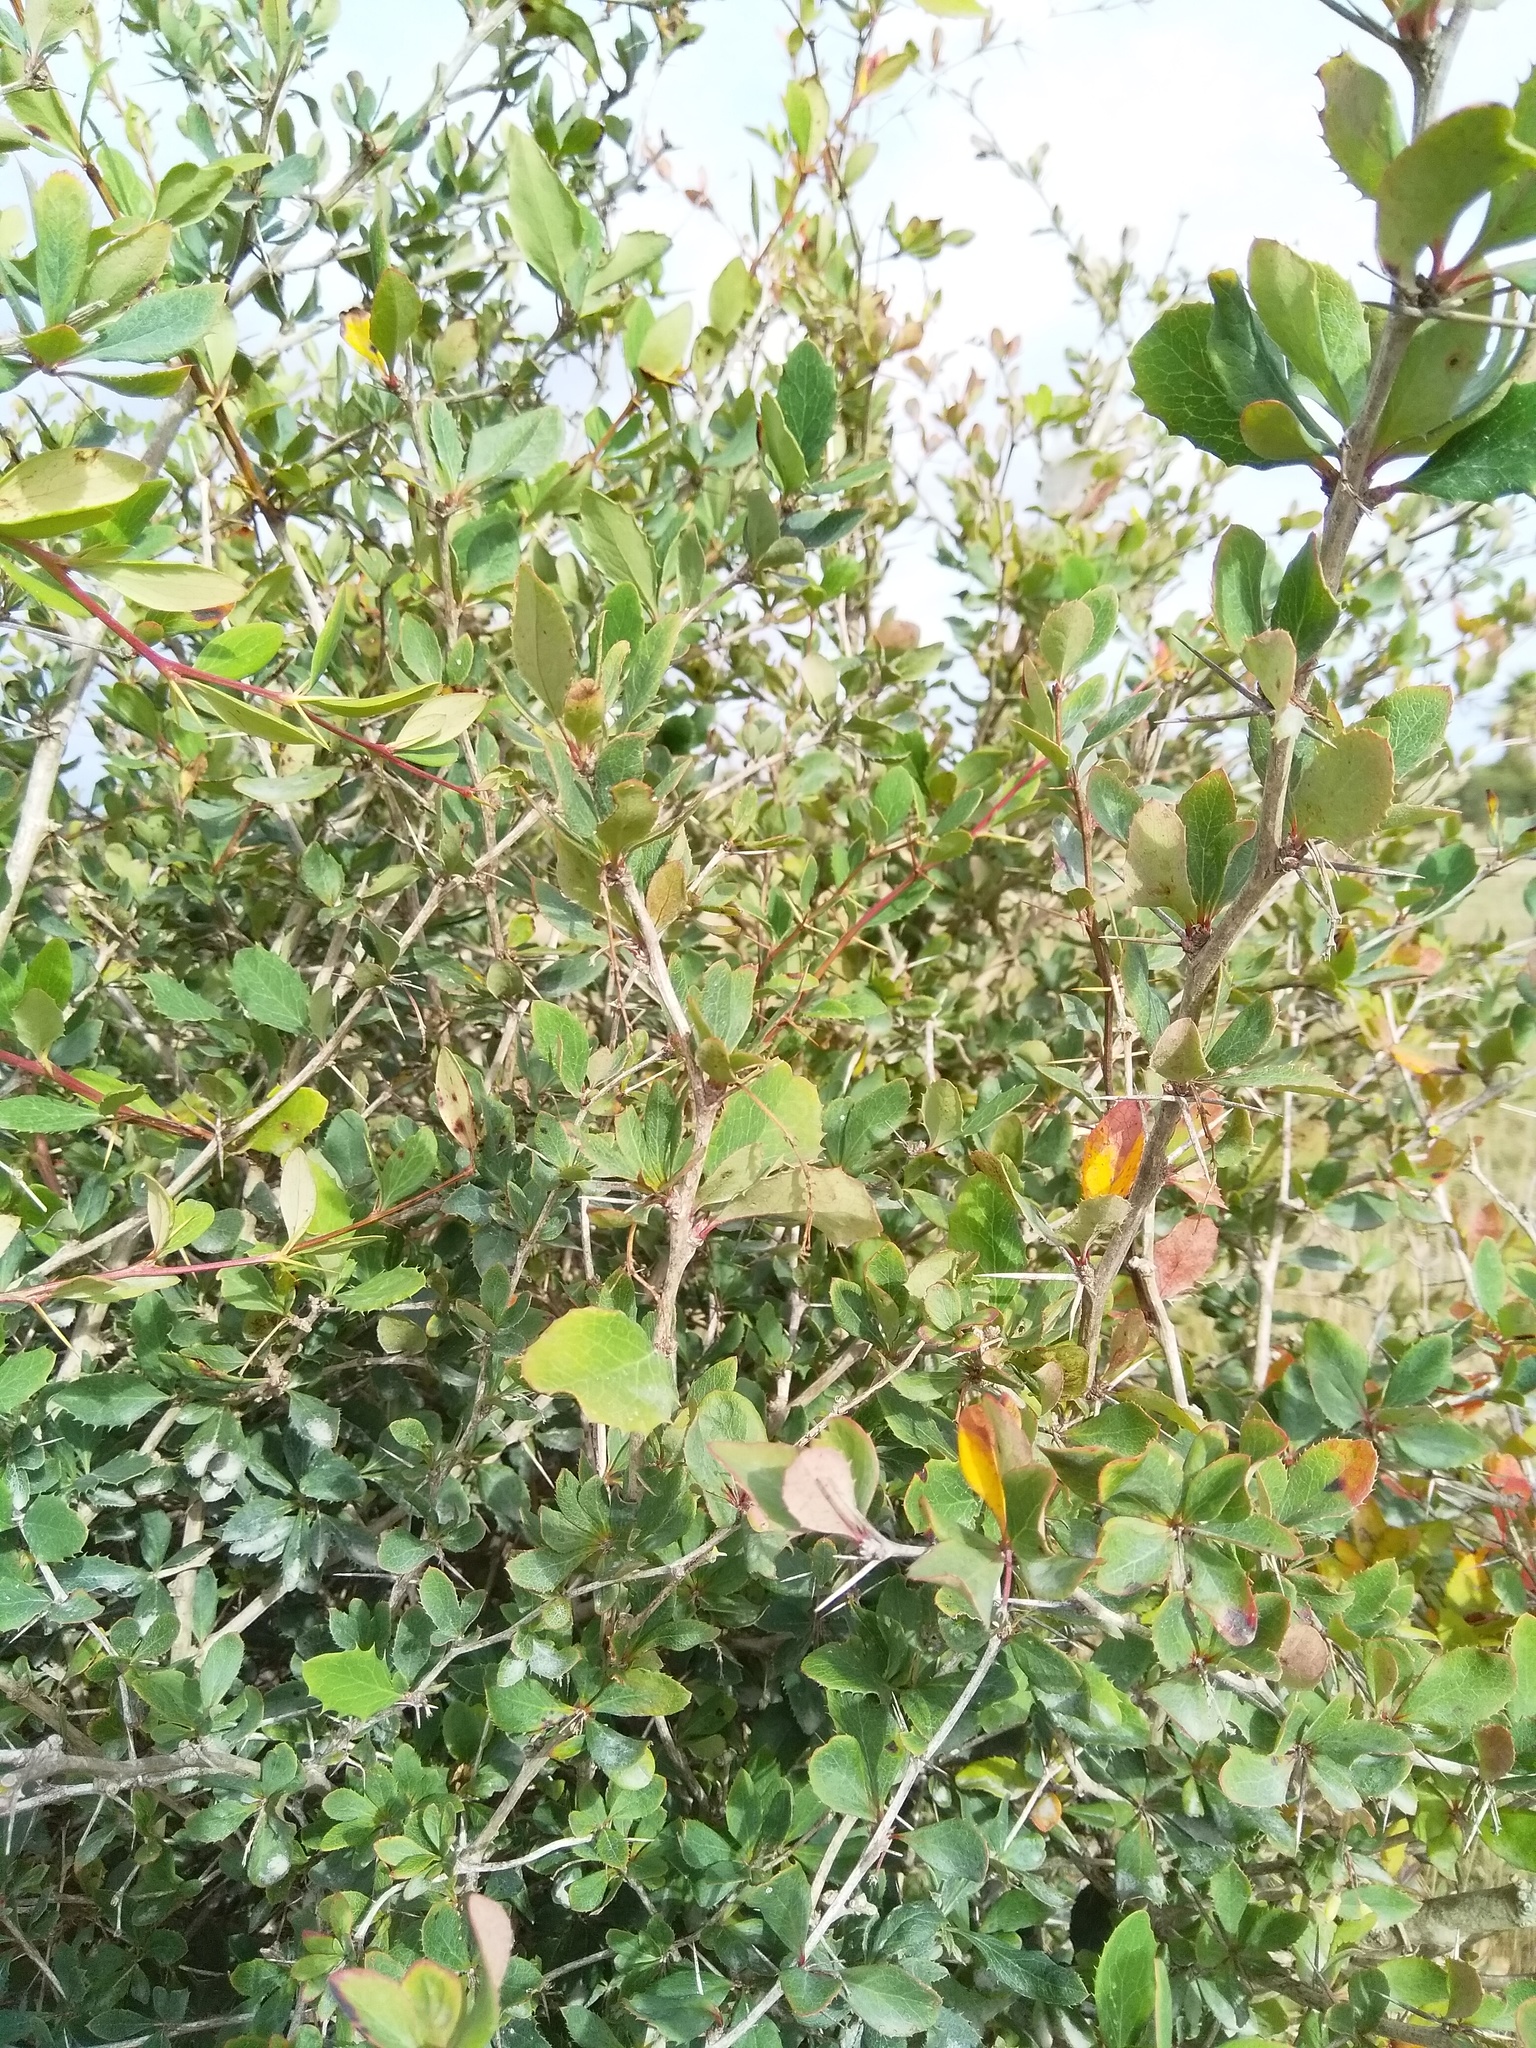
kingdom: Plantae
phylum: Tracheophyta
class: Magnoliopsida
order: Ranunculales
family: Berberidaceae
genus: Berberis
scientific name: Berberis glaucocarpa
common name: Great barberry
